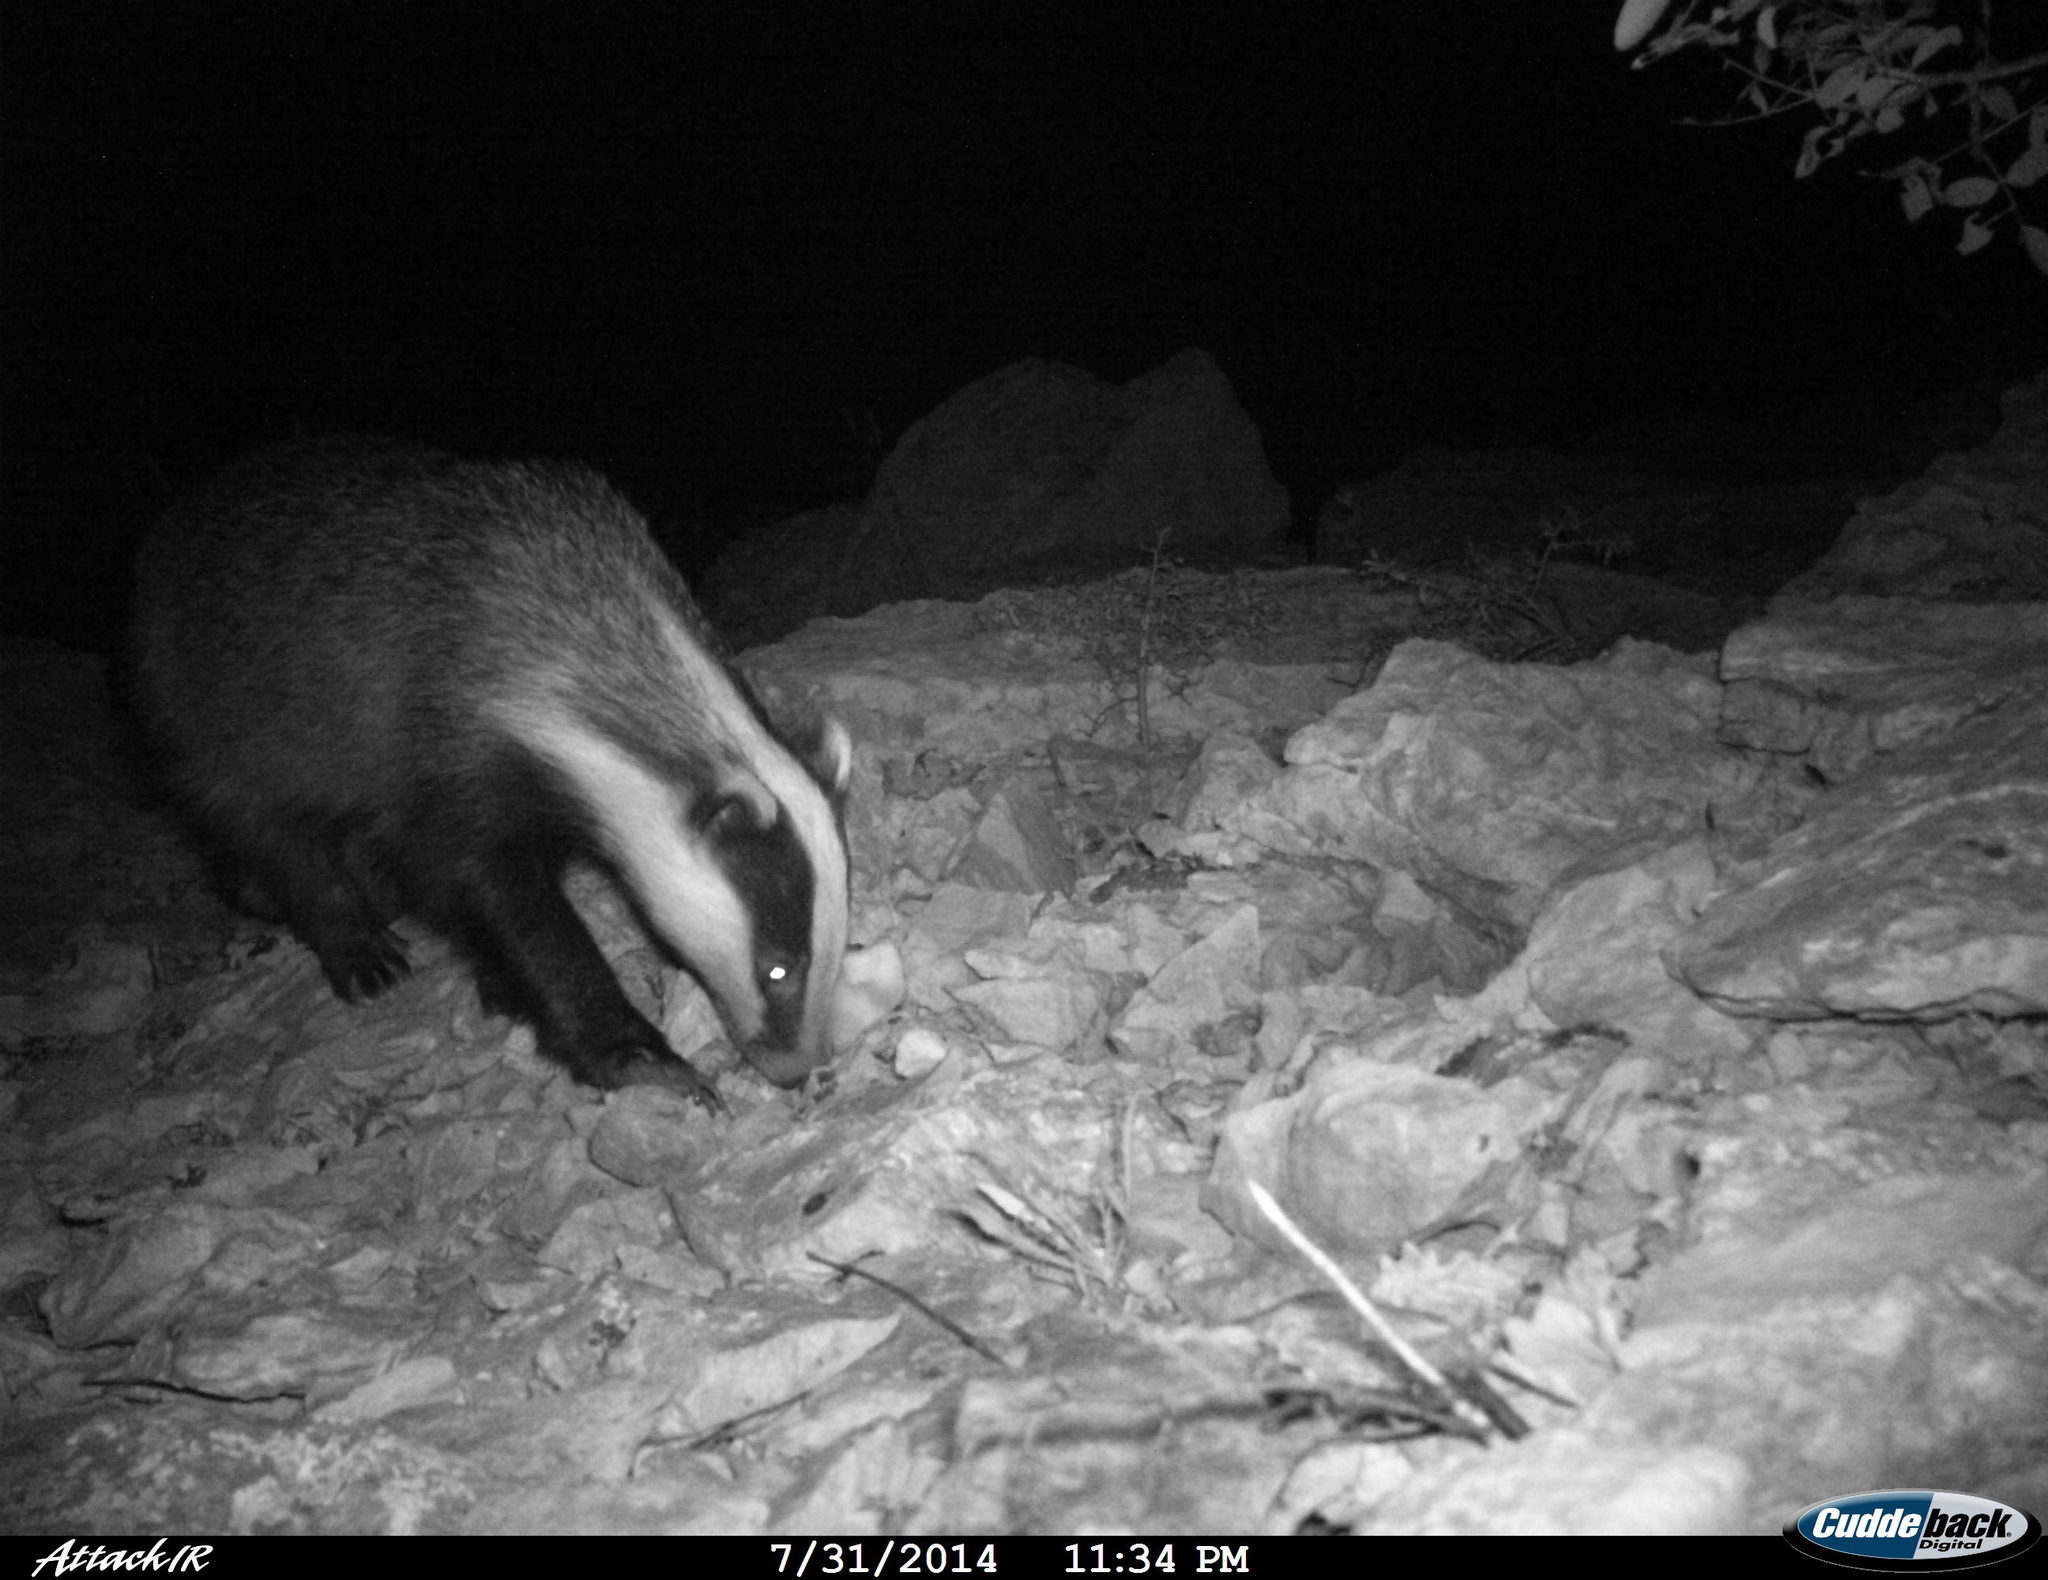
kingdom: Animalia
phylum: Chordata
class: Mammalia
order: Carnivora
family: Mustelidae
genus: Meles
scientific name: Meles meles
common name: Eurasian badger
